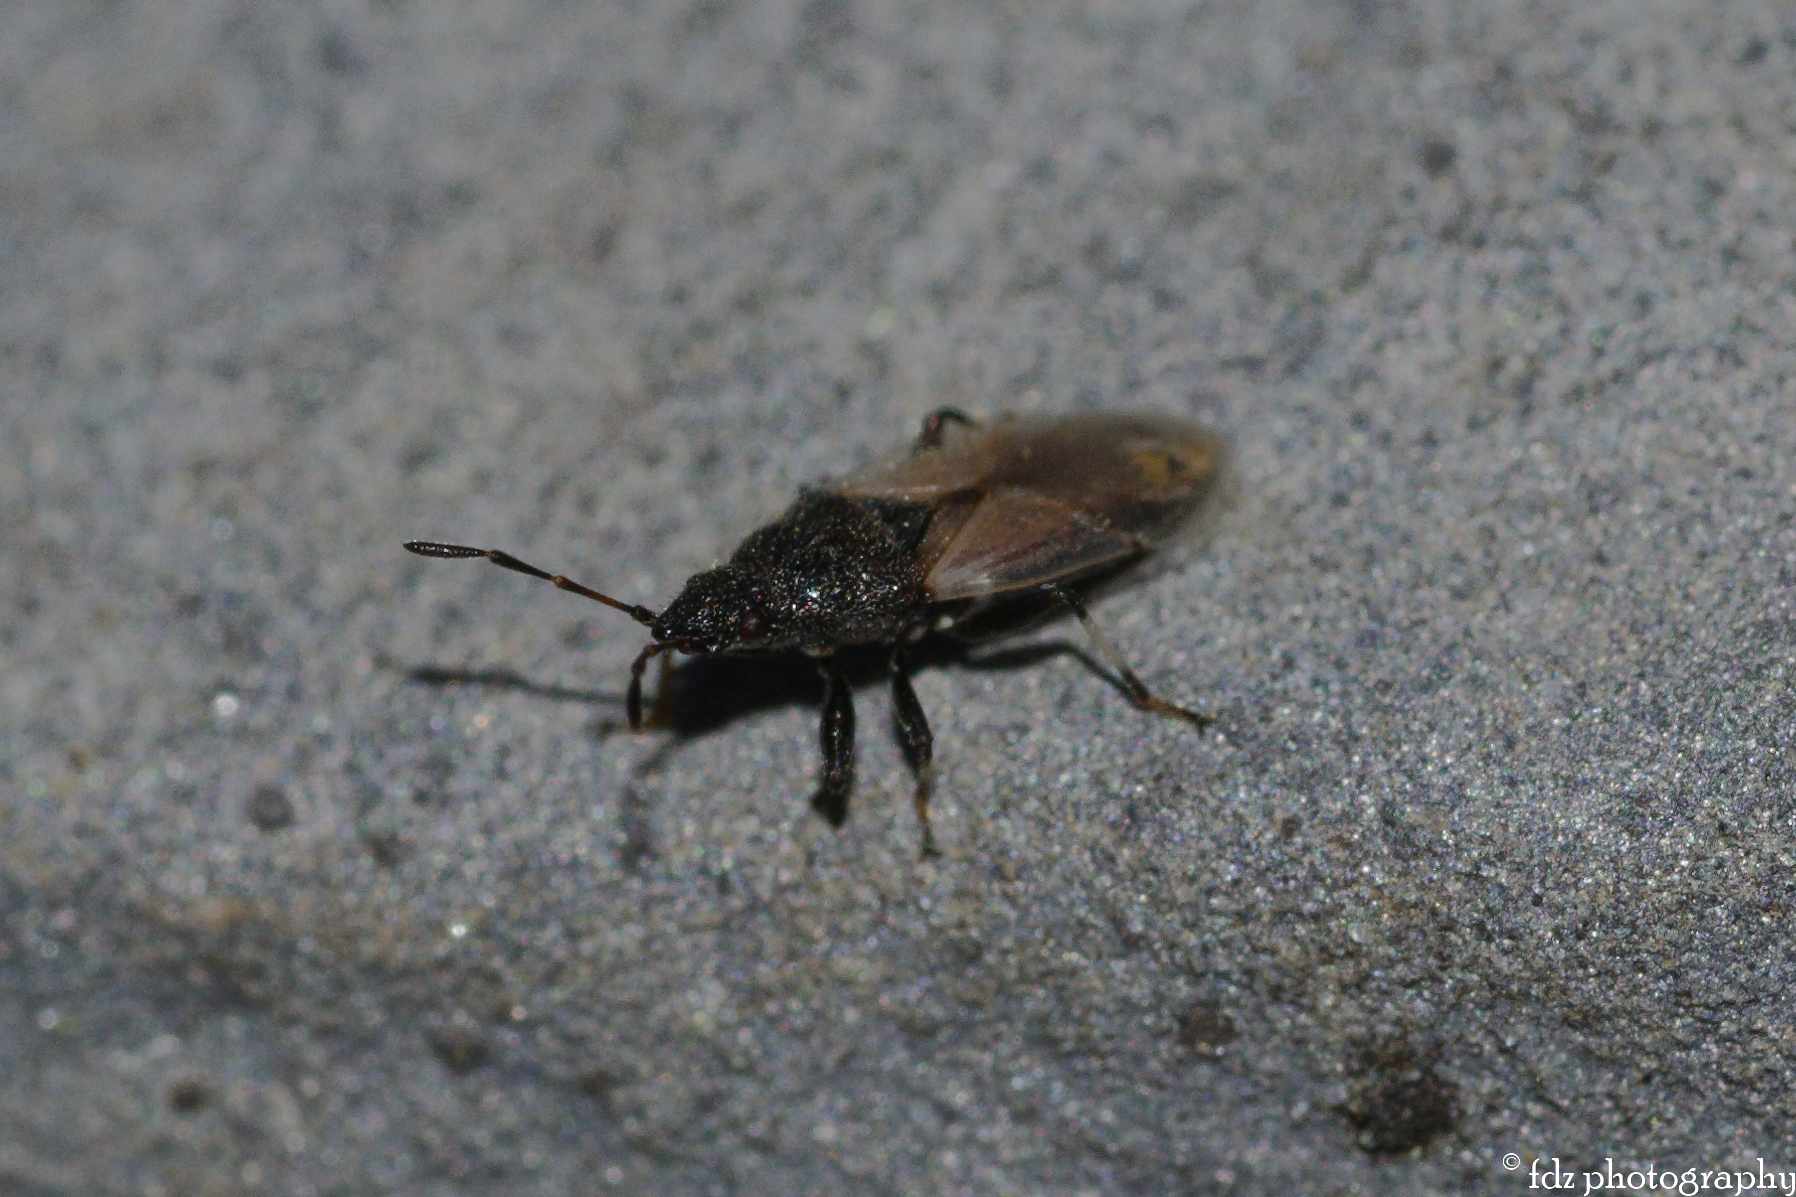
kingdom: Animalia
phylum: Arthropoda
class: Insecta
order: Hemiptera
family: Oxycarenidae
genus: Oxycarenus
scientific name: Oxycarenus hyalinipennis
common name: Cotton seed bug
